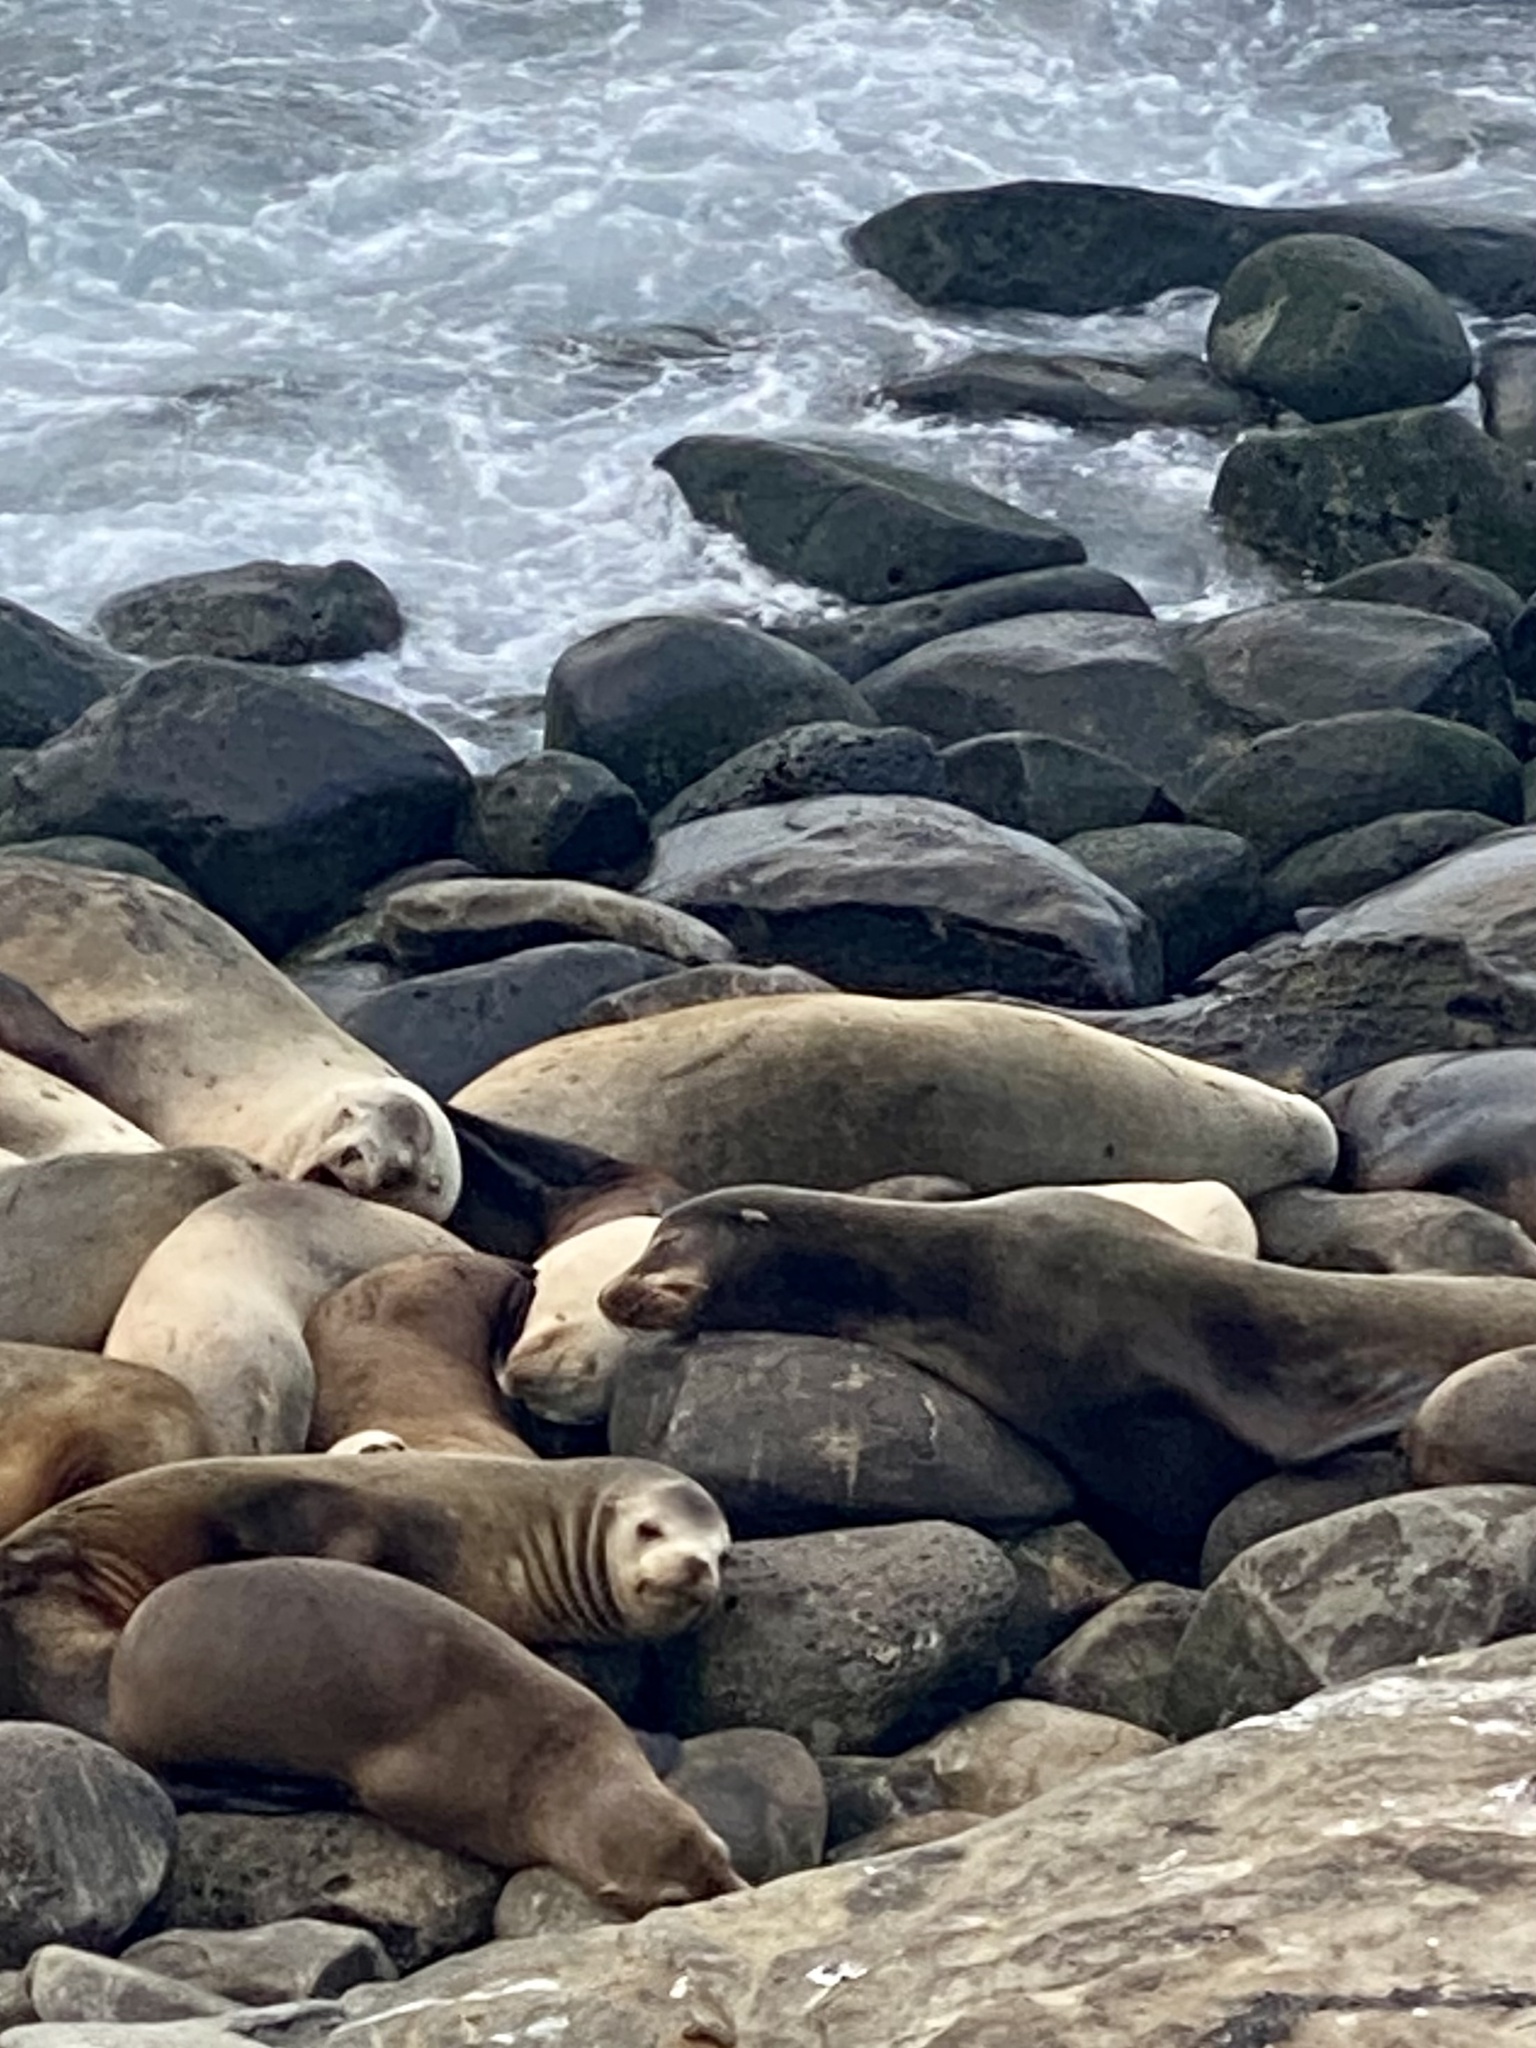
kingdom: Animalia
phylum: Chordata
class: Mammalia
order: Carnivora
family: Otariidae
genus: Zalophus
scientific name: Zalophus californianus
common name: California sea lion
